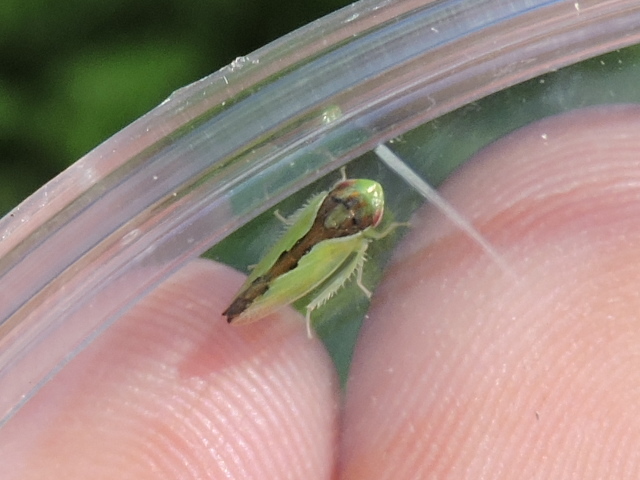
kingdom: Animalia
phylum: Arthropoda
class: Insecta
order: Hemiptera
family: Cicadellidae
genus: Omansobara ing
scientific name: Omansobara ing Omansobara palliolata
